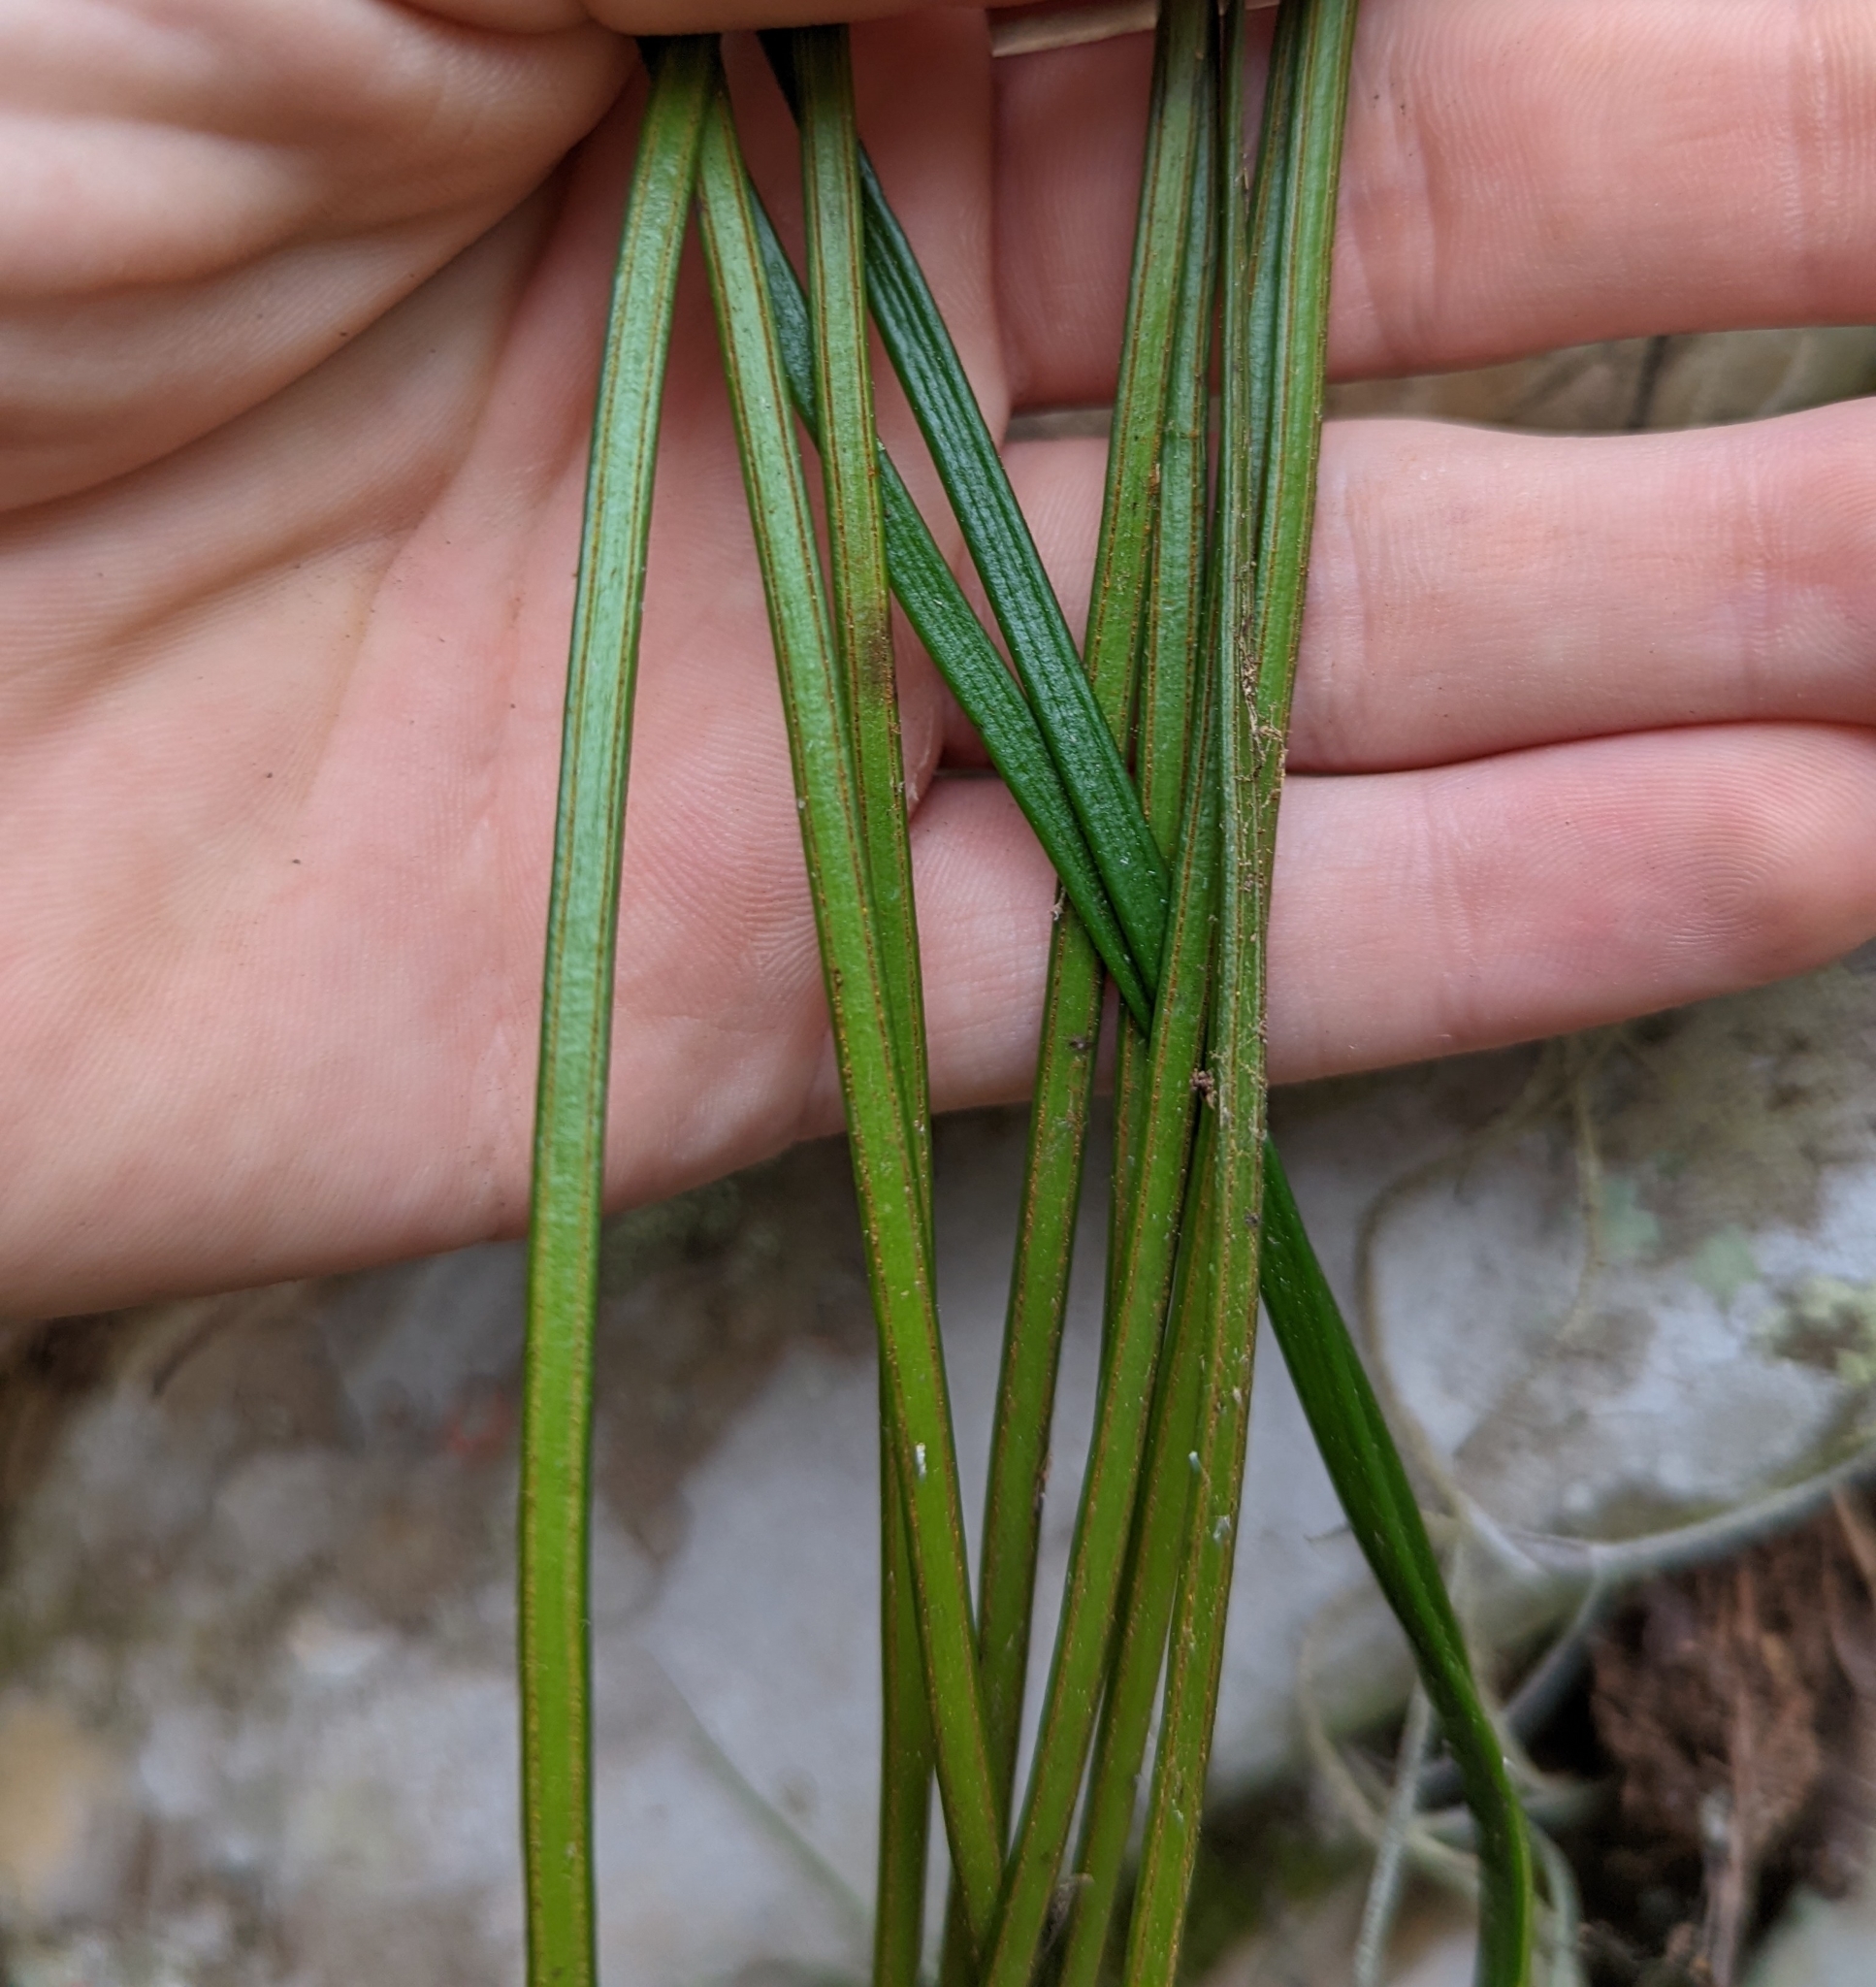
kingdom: Plantae
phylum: Tracheophyta
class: Polypodiopsida
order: Polypodiales
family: Pteridaceae
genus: Vittaria
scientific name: Vittaria lineata
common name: Shoestring fern
